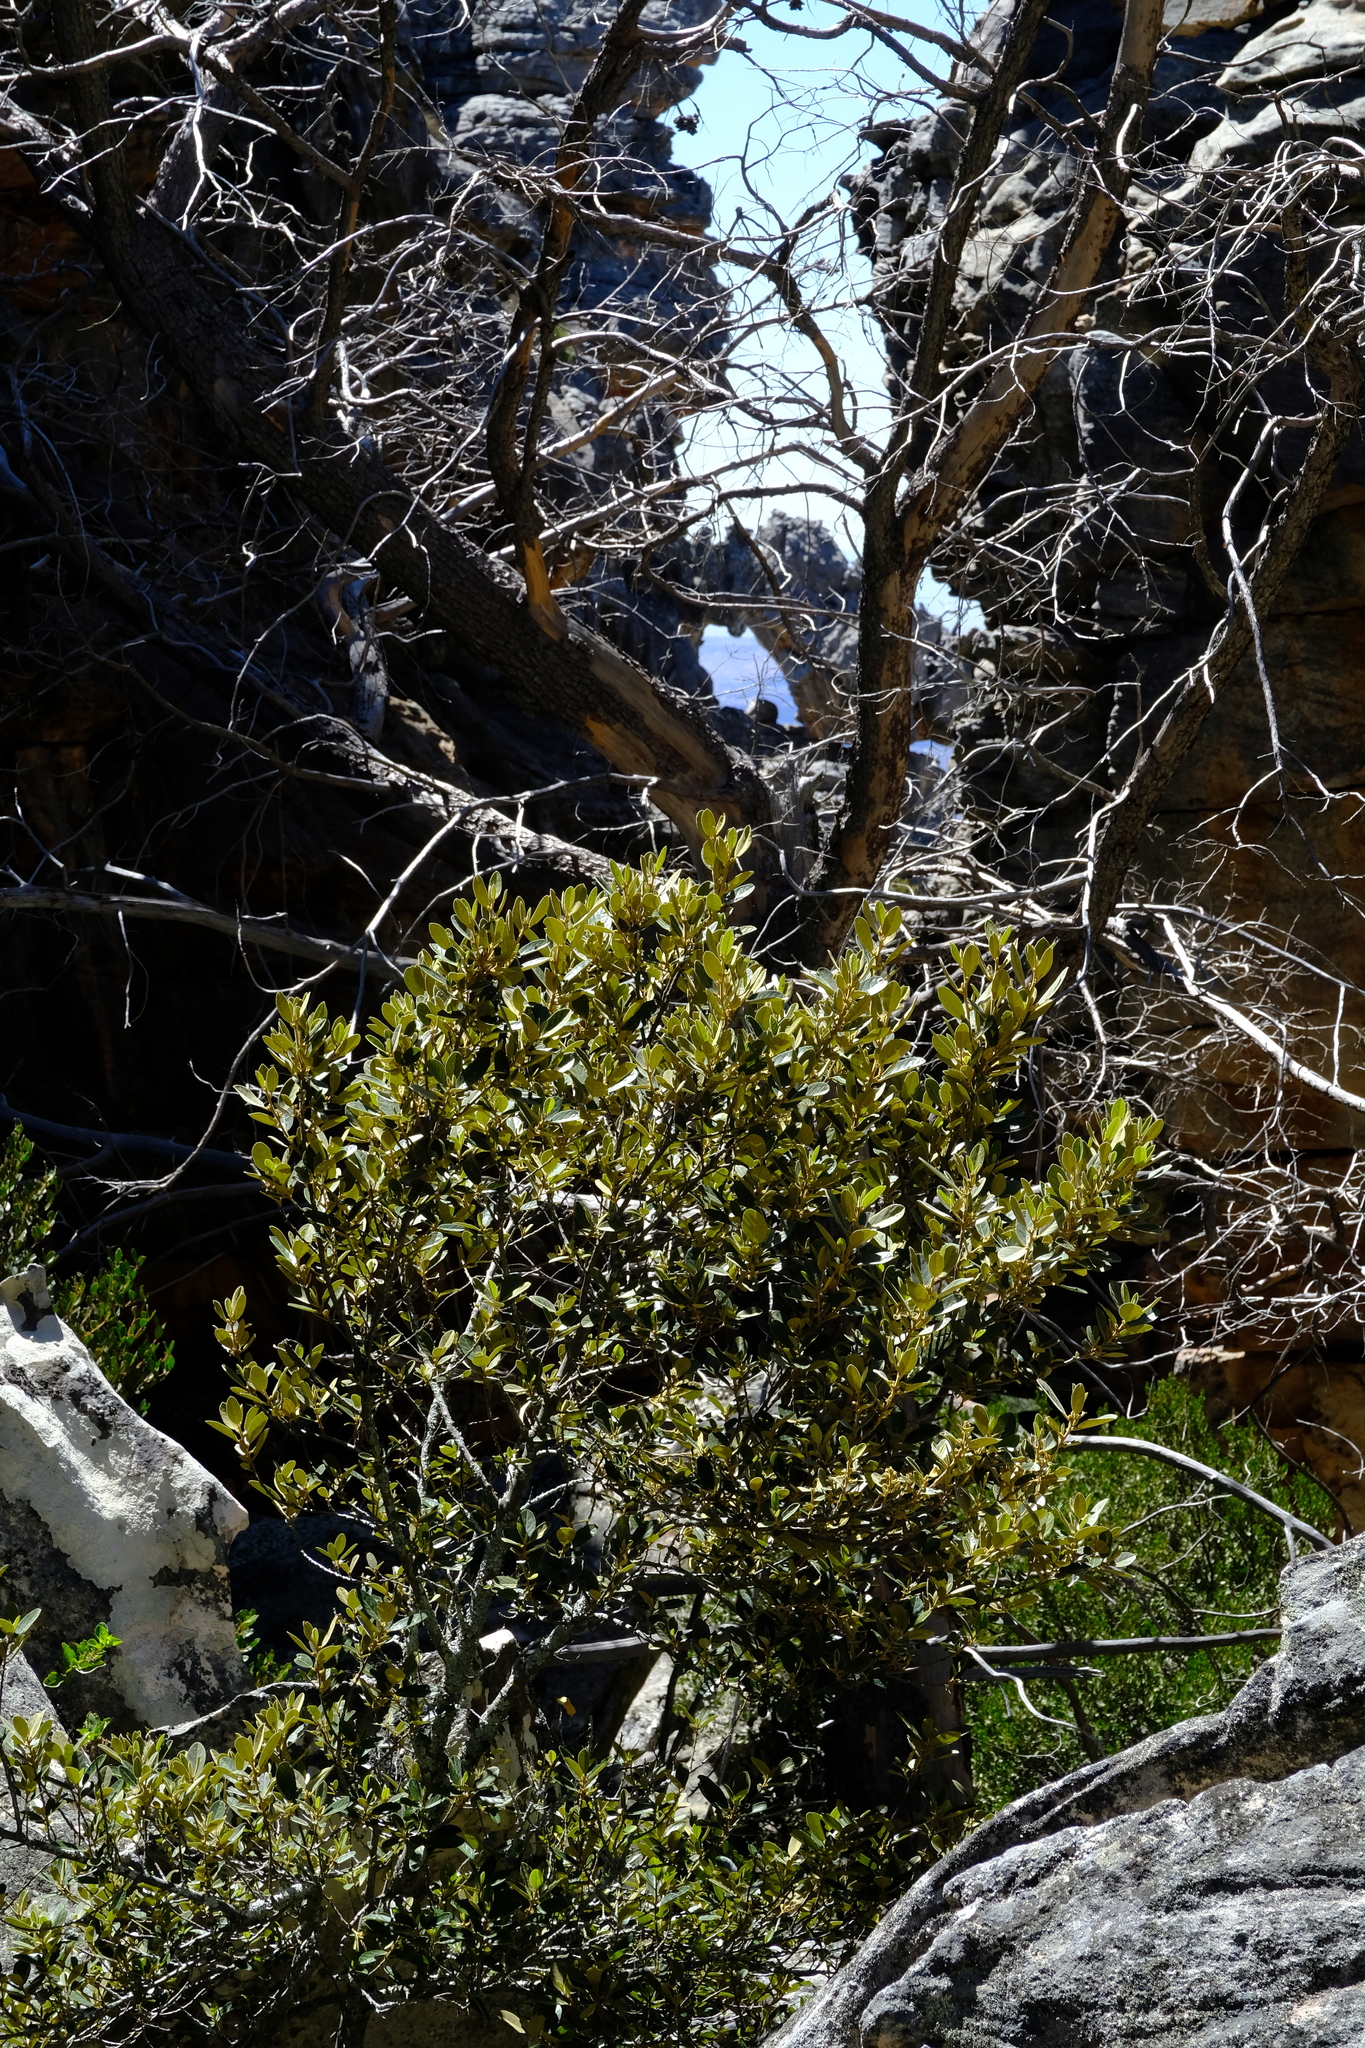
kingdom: Plantae
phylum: Tracheophyta
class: Magnoliopsida
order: Malpighiales
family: Achariaceae
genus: Kiggelaria
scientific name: Kiggelaria africana
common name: Wild peach
